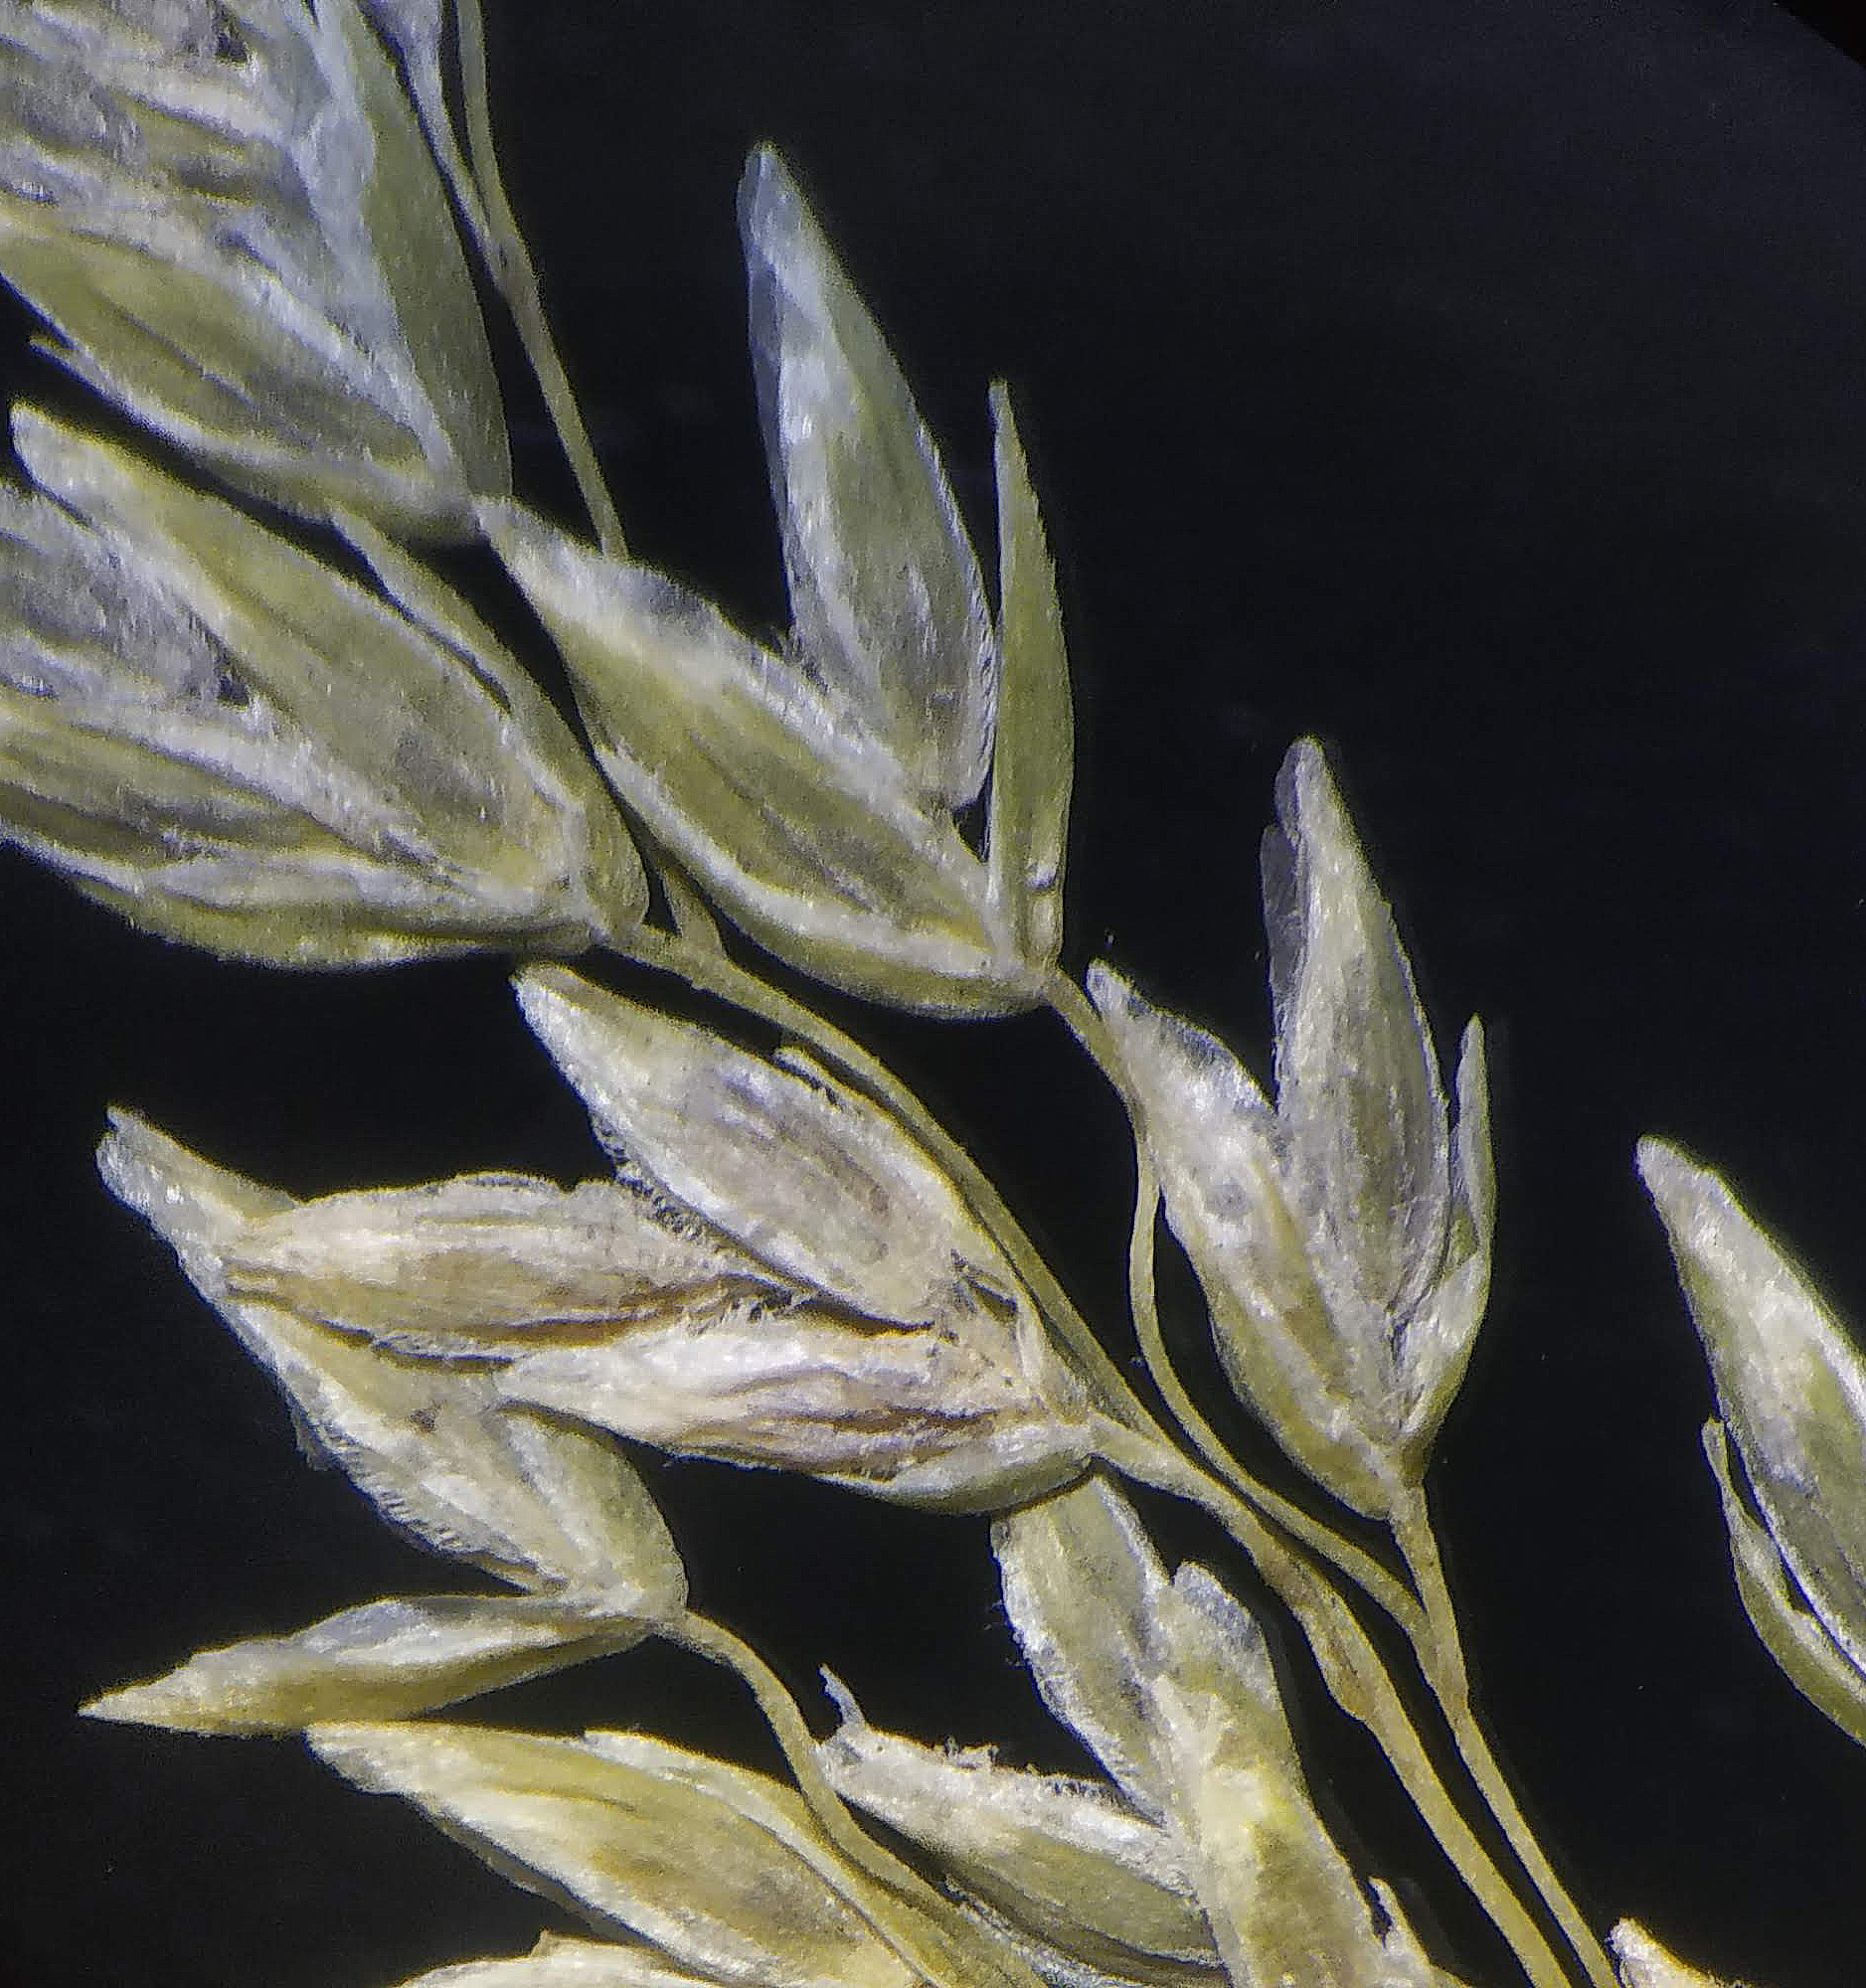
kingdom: Plantae
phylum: Tracheophyta
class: Liliopsida
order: Poales
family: Poaceae
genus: Poa
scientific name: Poa nepalensis
